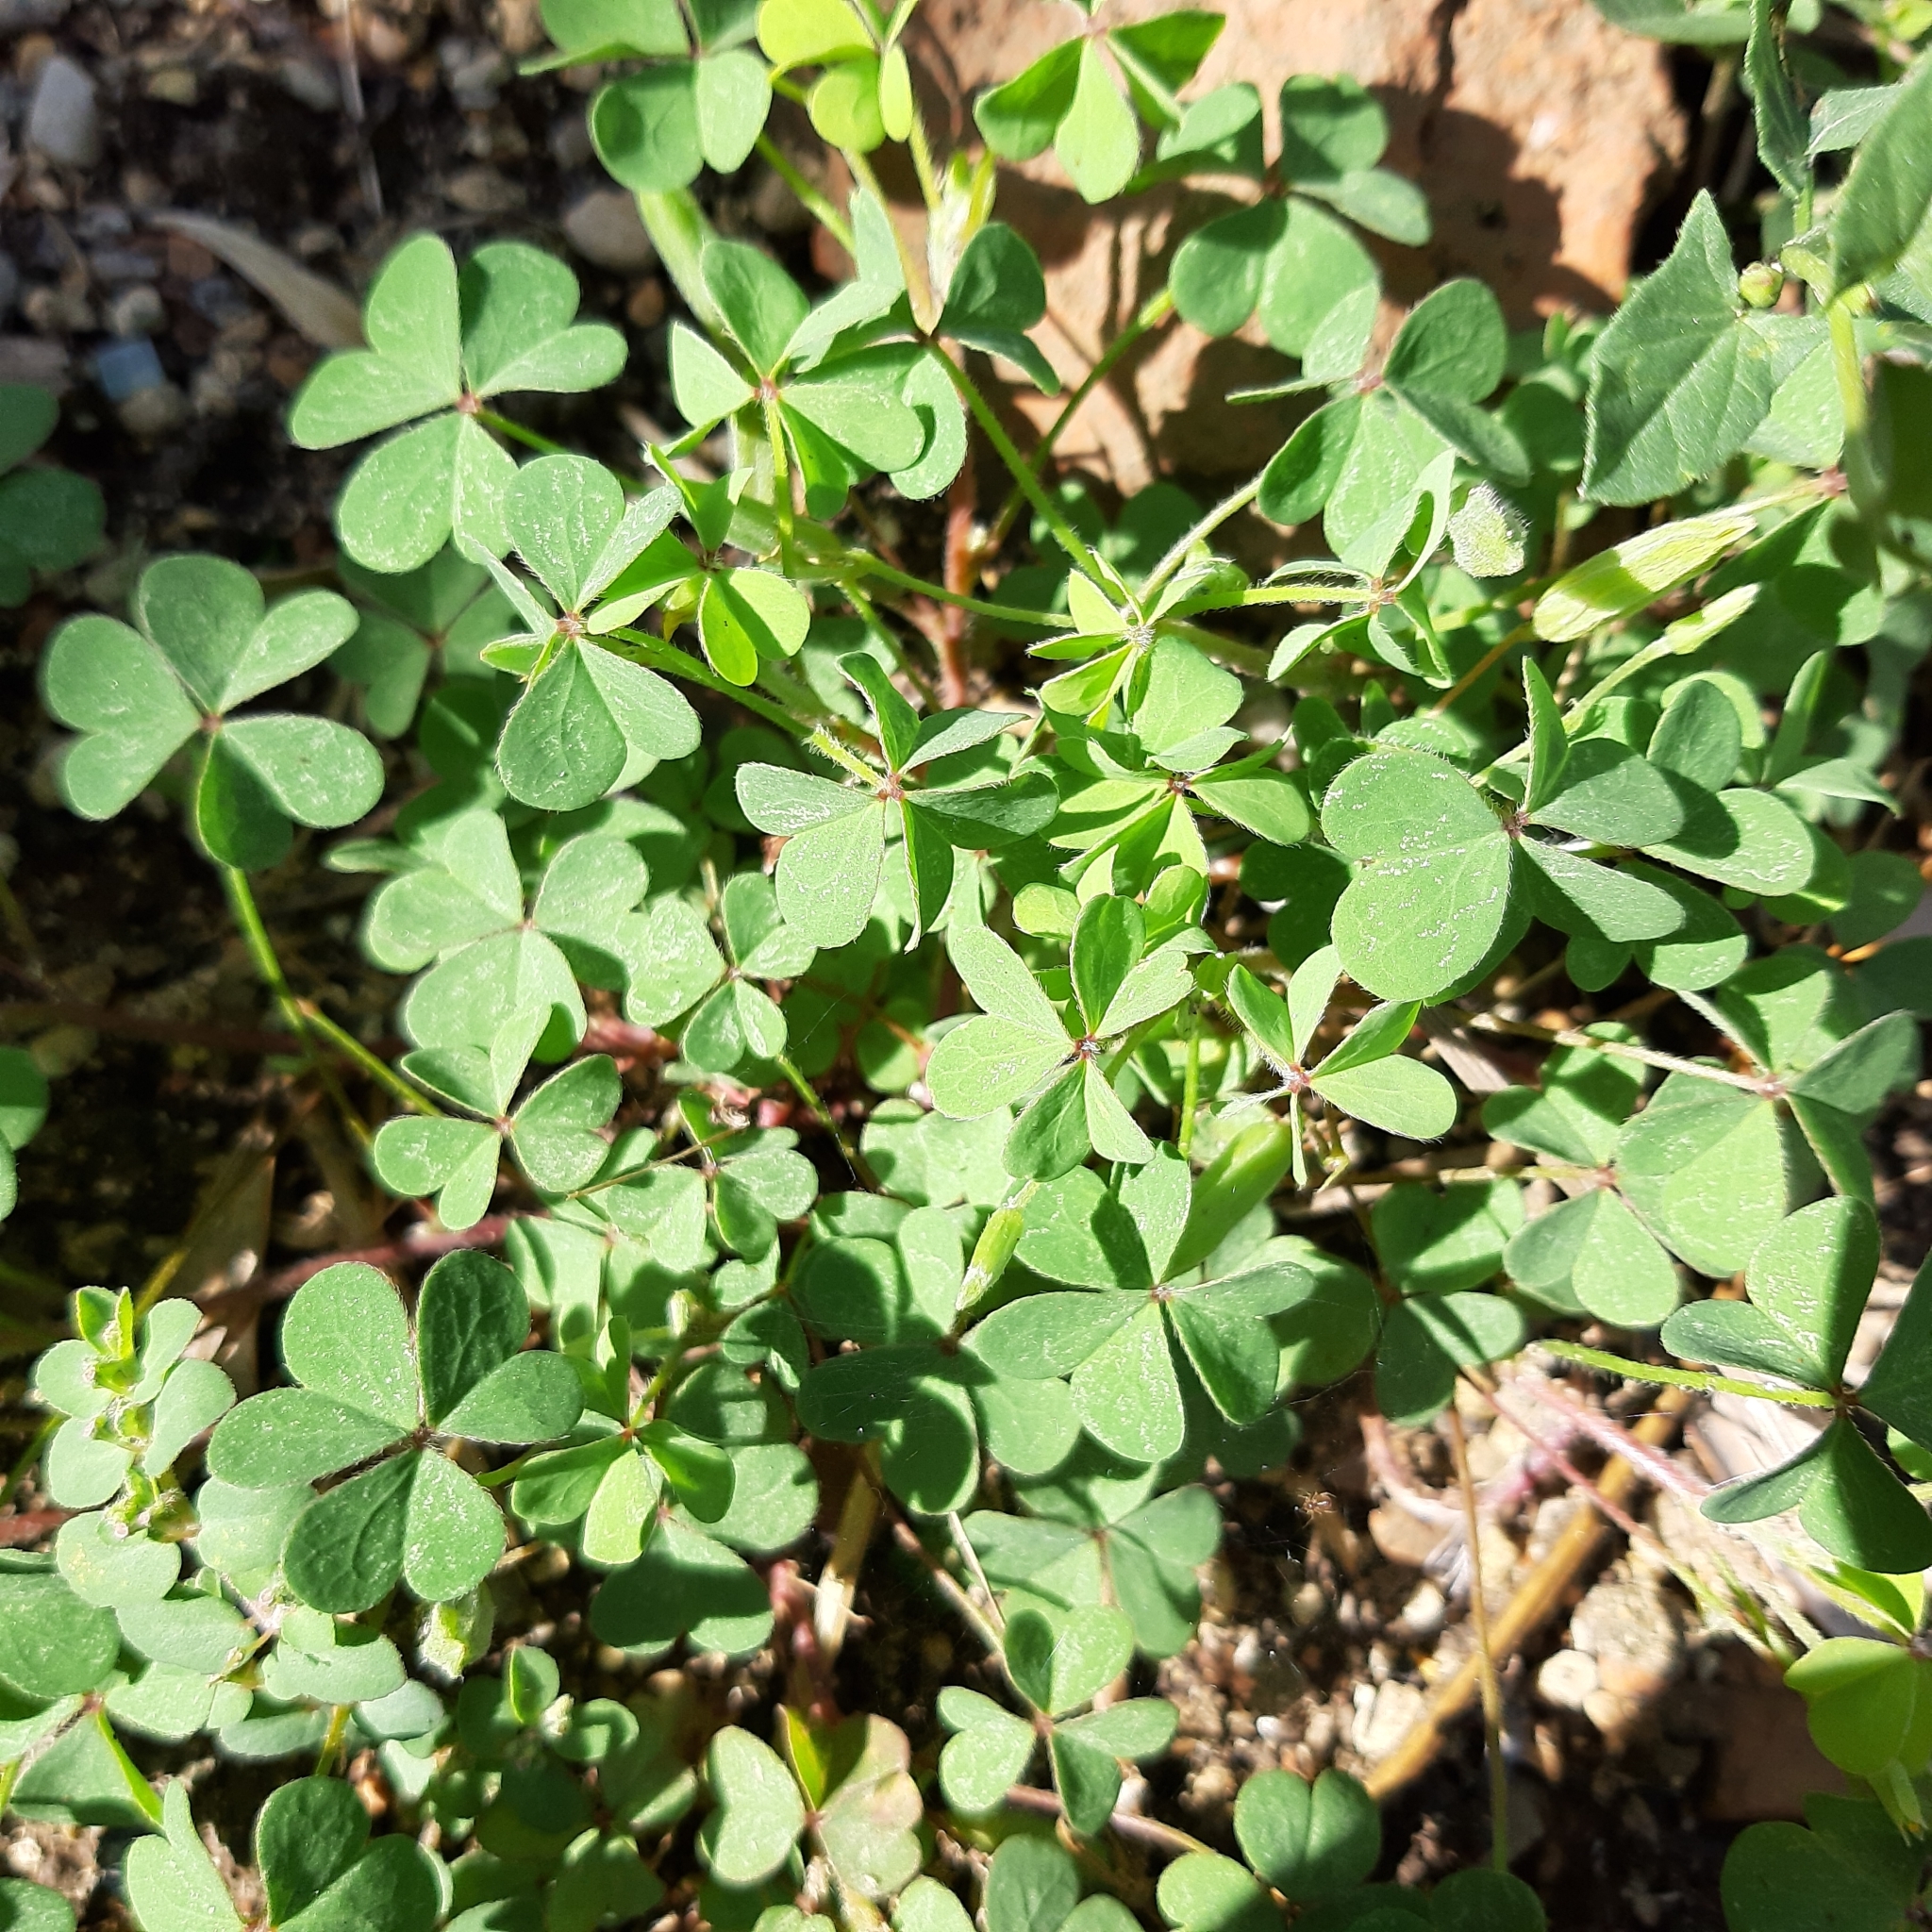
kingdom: Plantae
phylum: Tracheophyta
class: Magnoliopsida
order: Oxalidales
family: Oxalidaceae
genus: Oxalis
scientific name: Oxalis corniculata
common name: Procumbent yellow-sorrel
